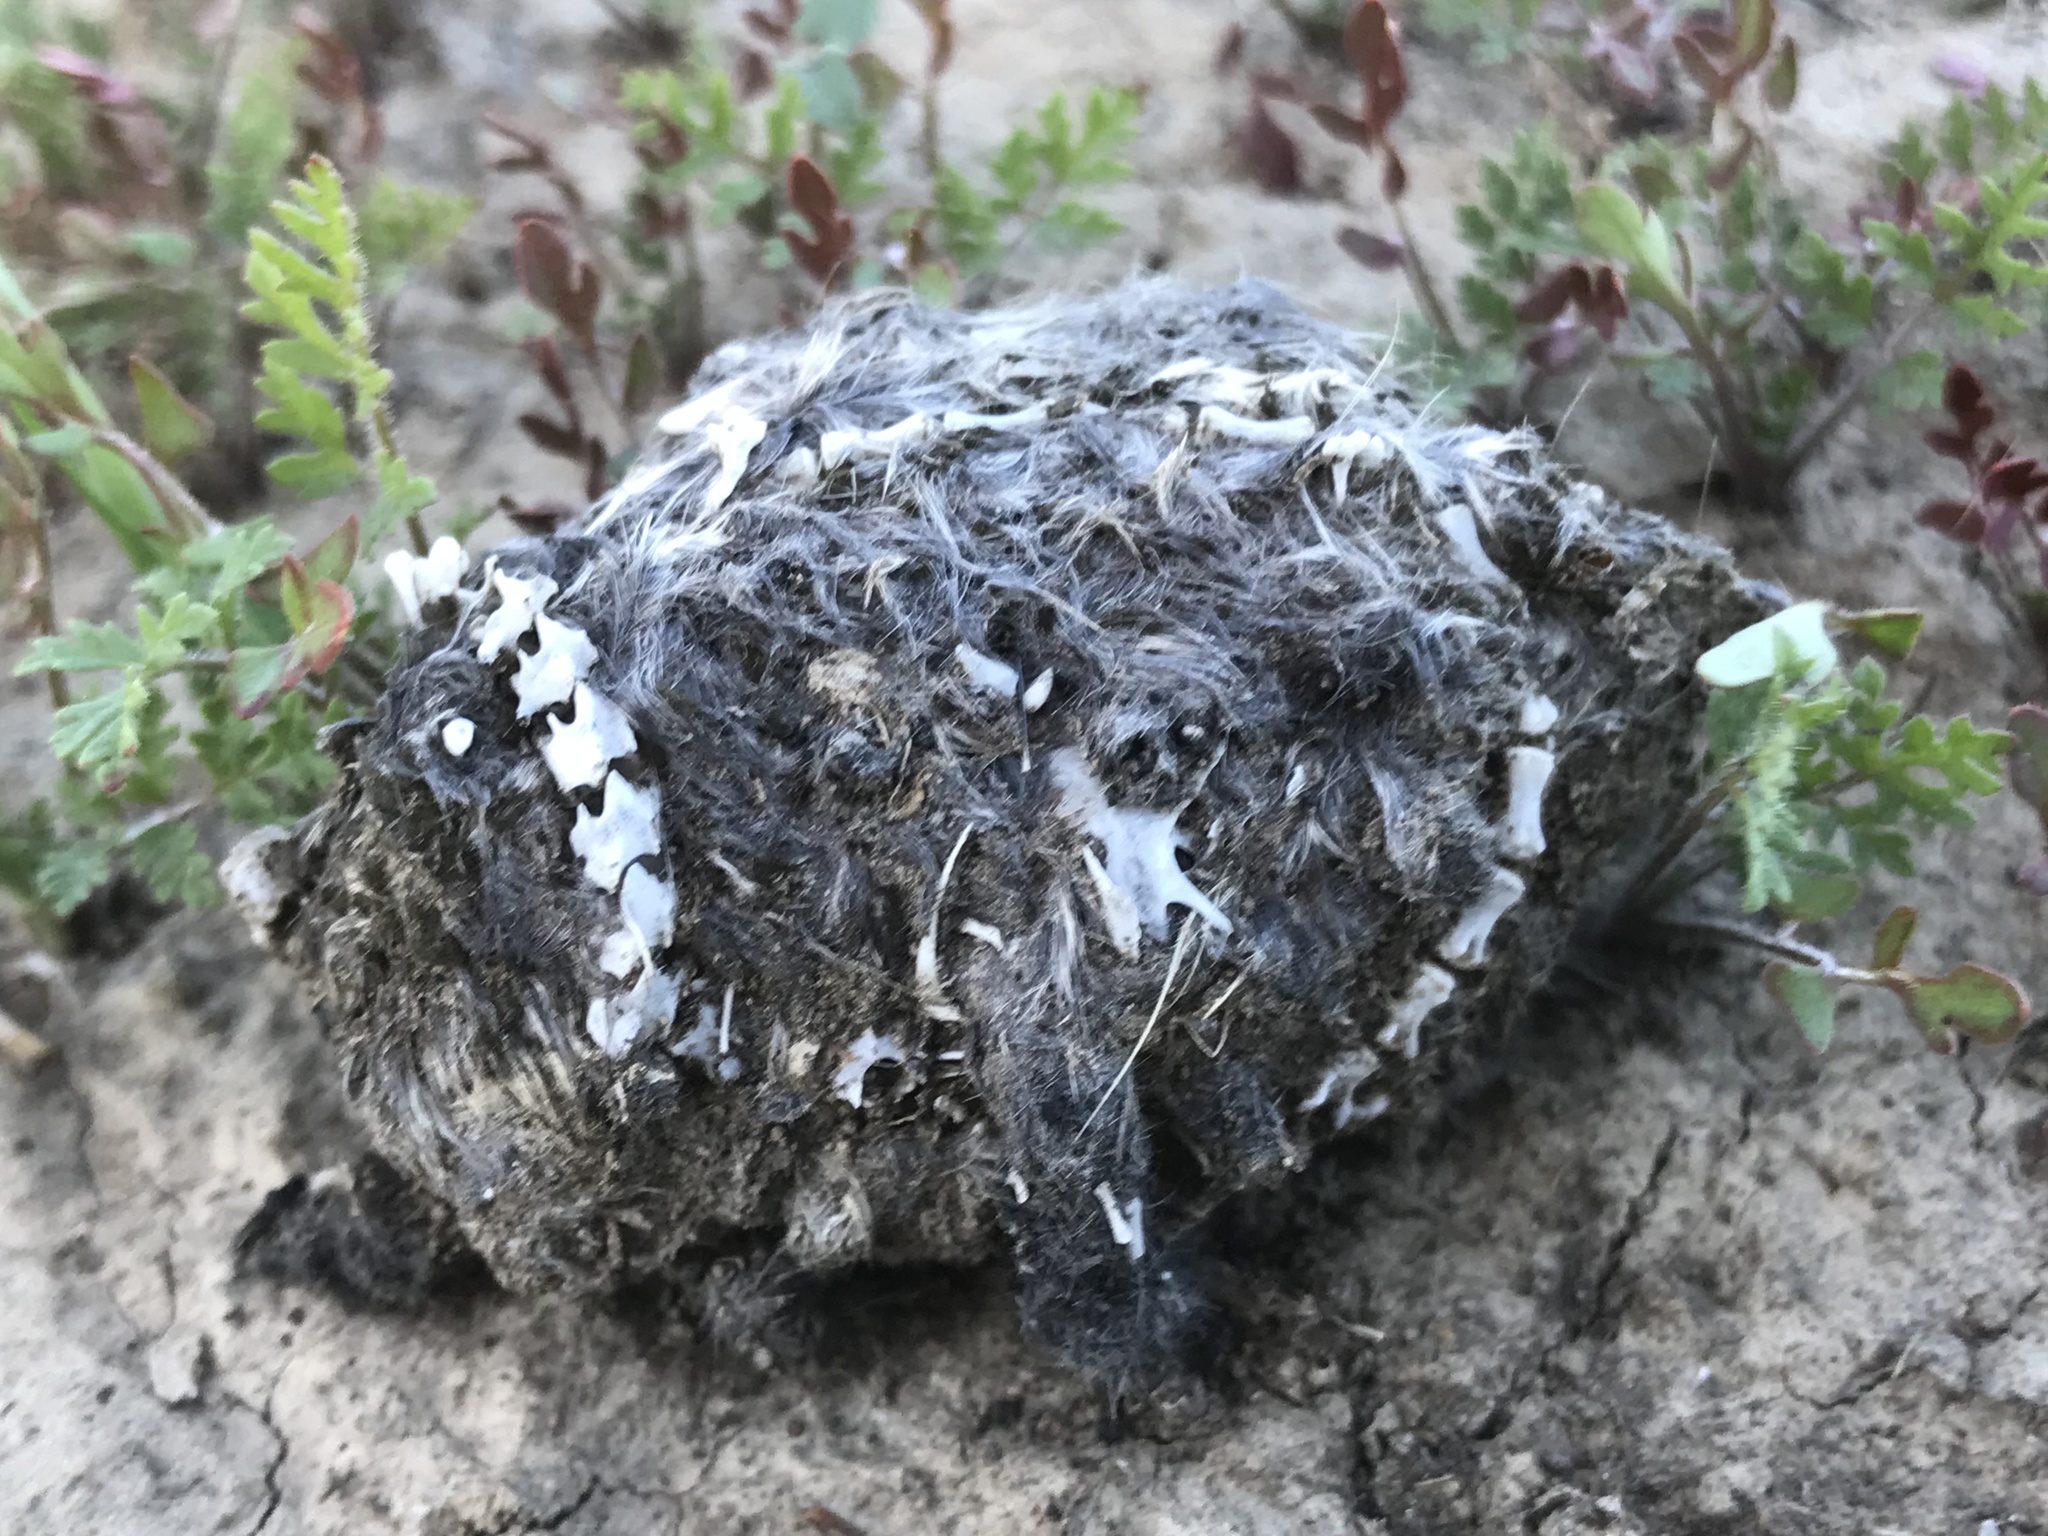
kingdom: Animalia
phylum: Chordata
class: Mammalia
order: Rodentia
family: Cricetidae
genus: Peromyscus
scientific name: Peromyscus maniculatus
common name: Deer mouse
